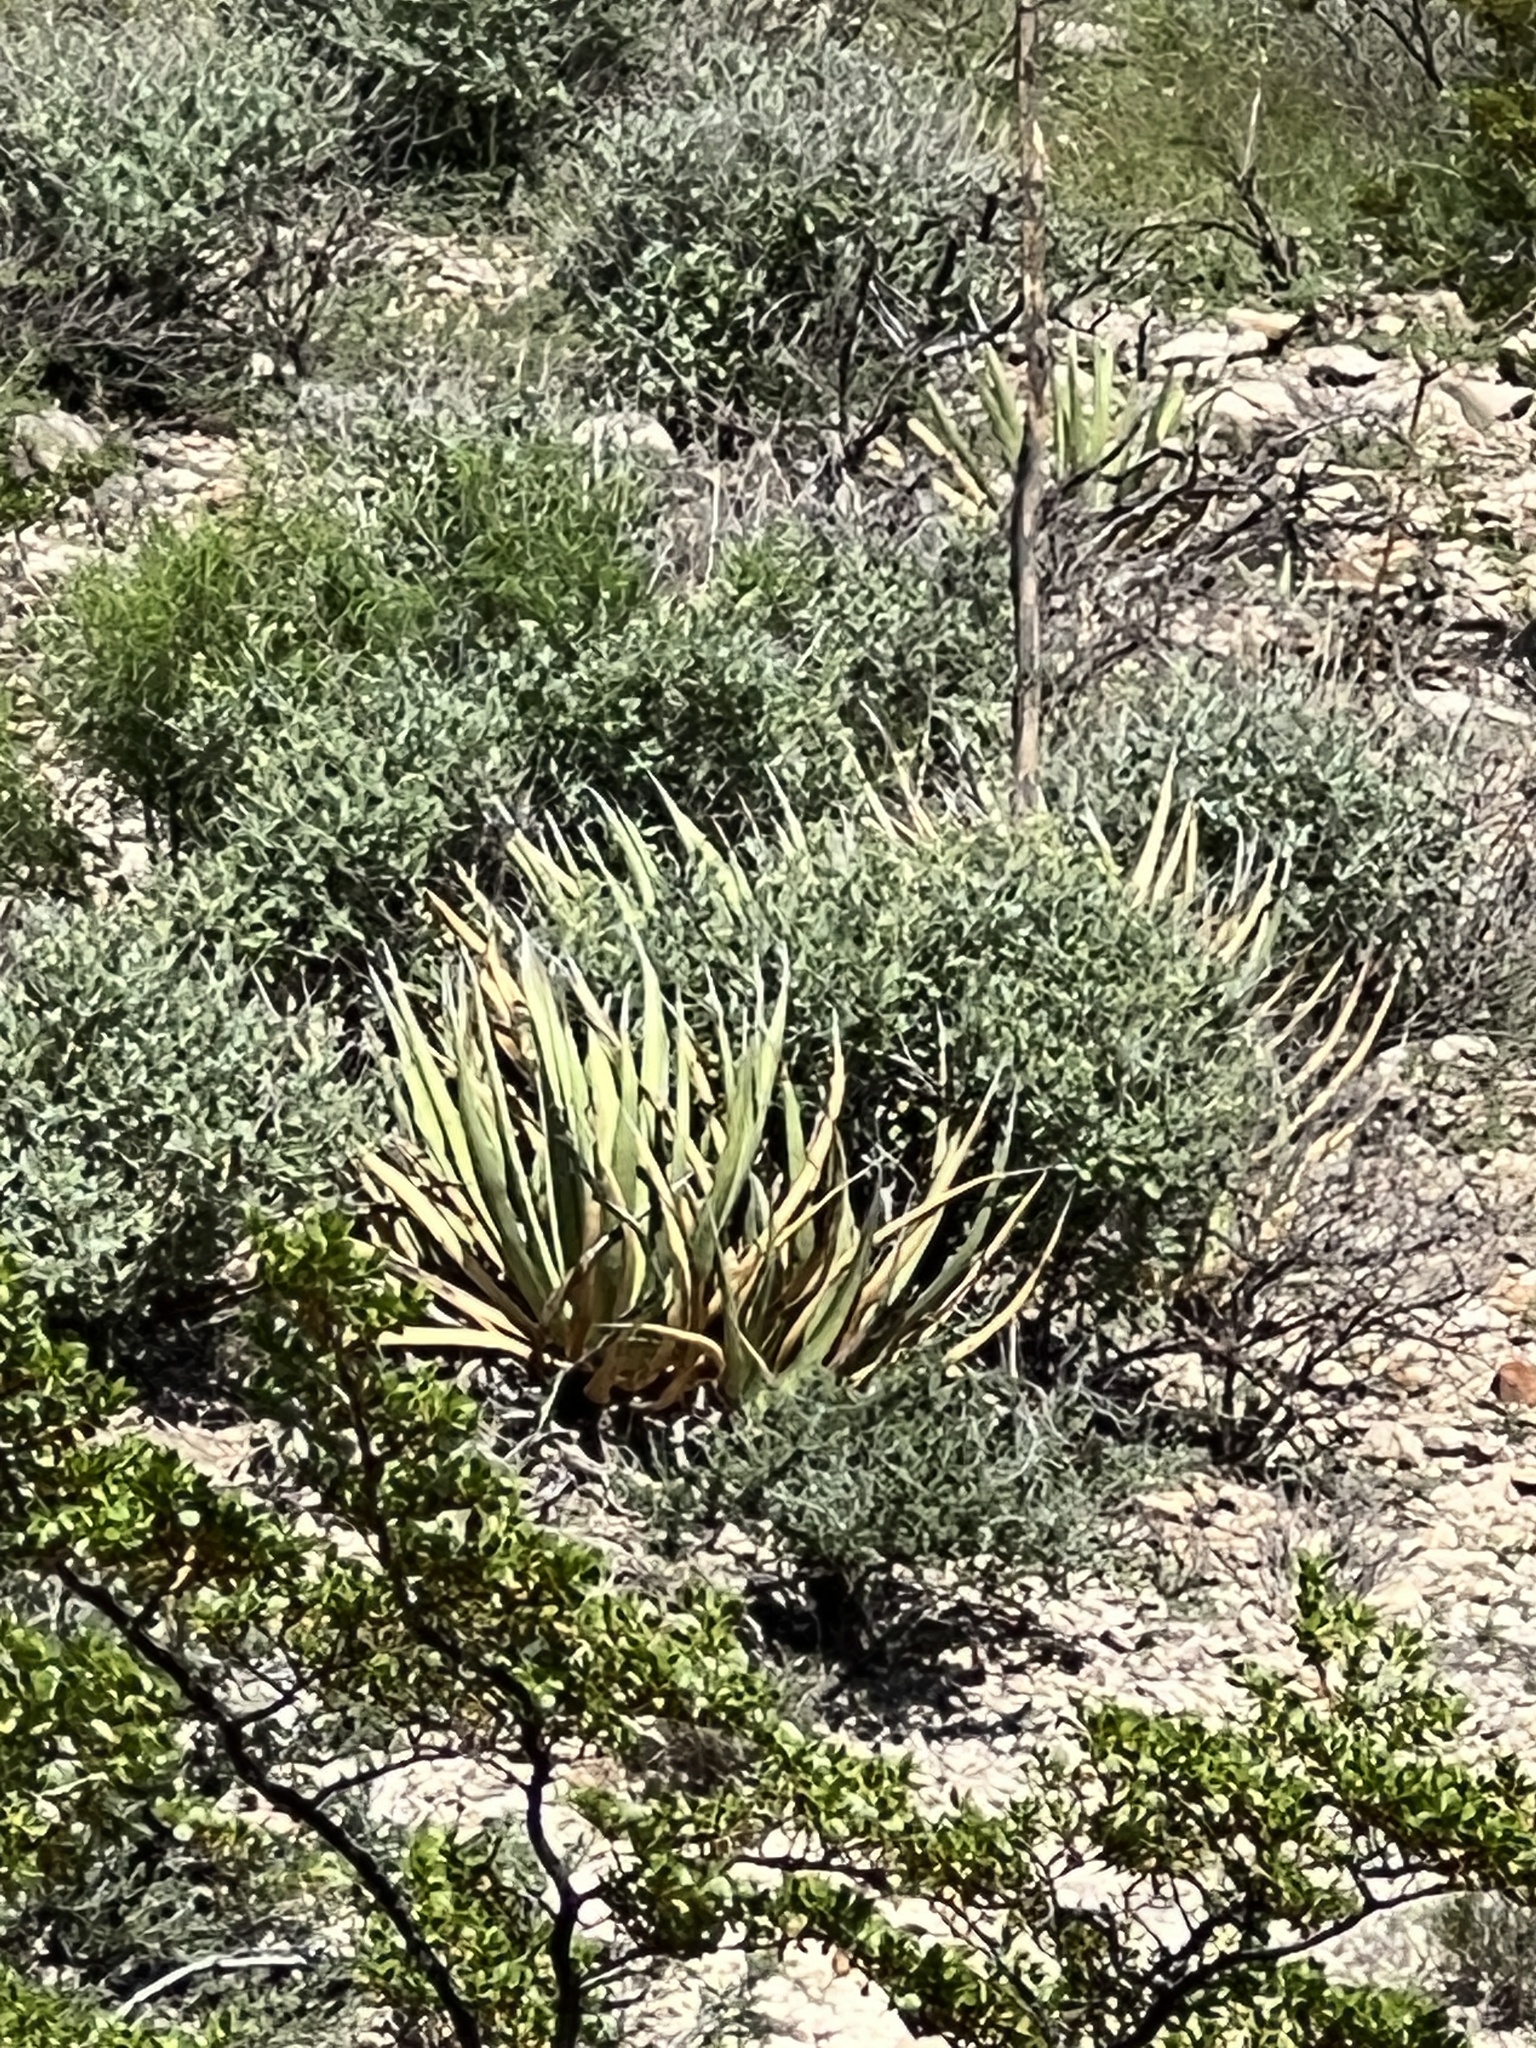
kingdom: Plantae
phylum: Tracheophyta
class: Liliopsida
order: Asparagales
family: Asparagaceae
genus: Agave
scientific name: Agave lechuguilla
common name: Lecheguilla agave
